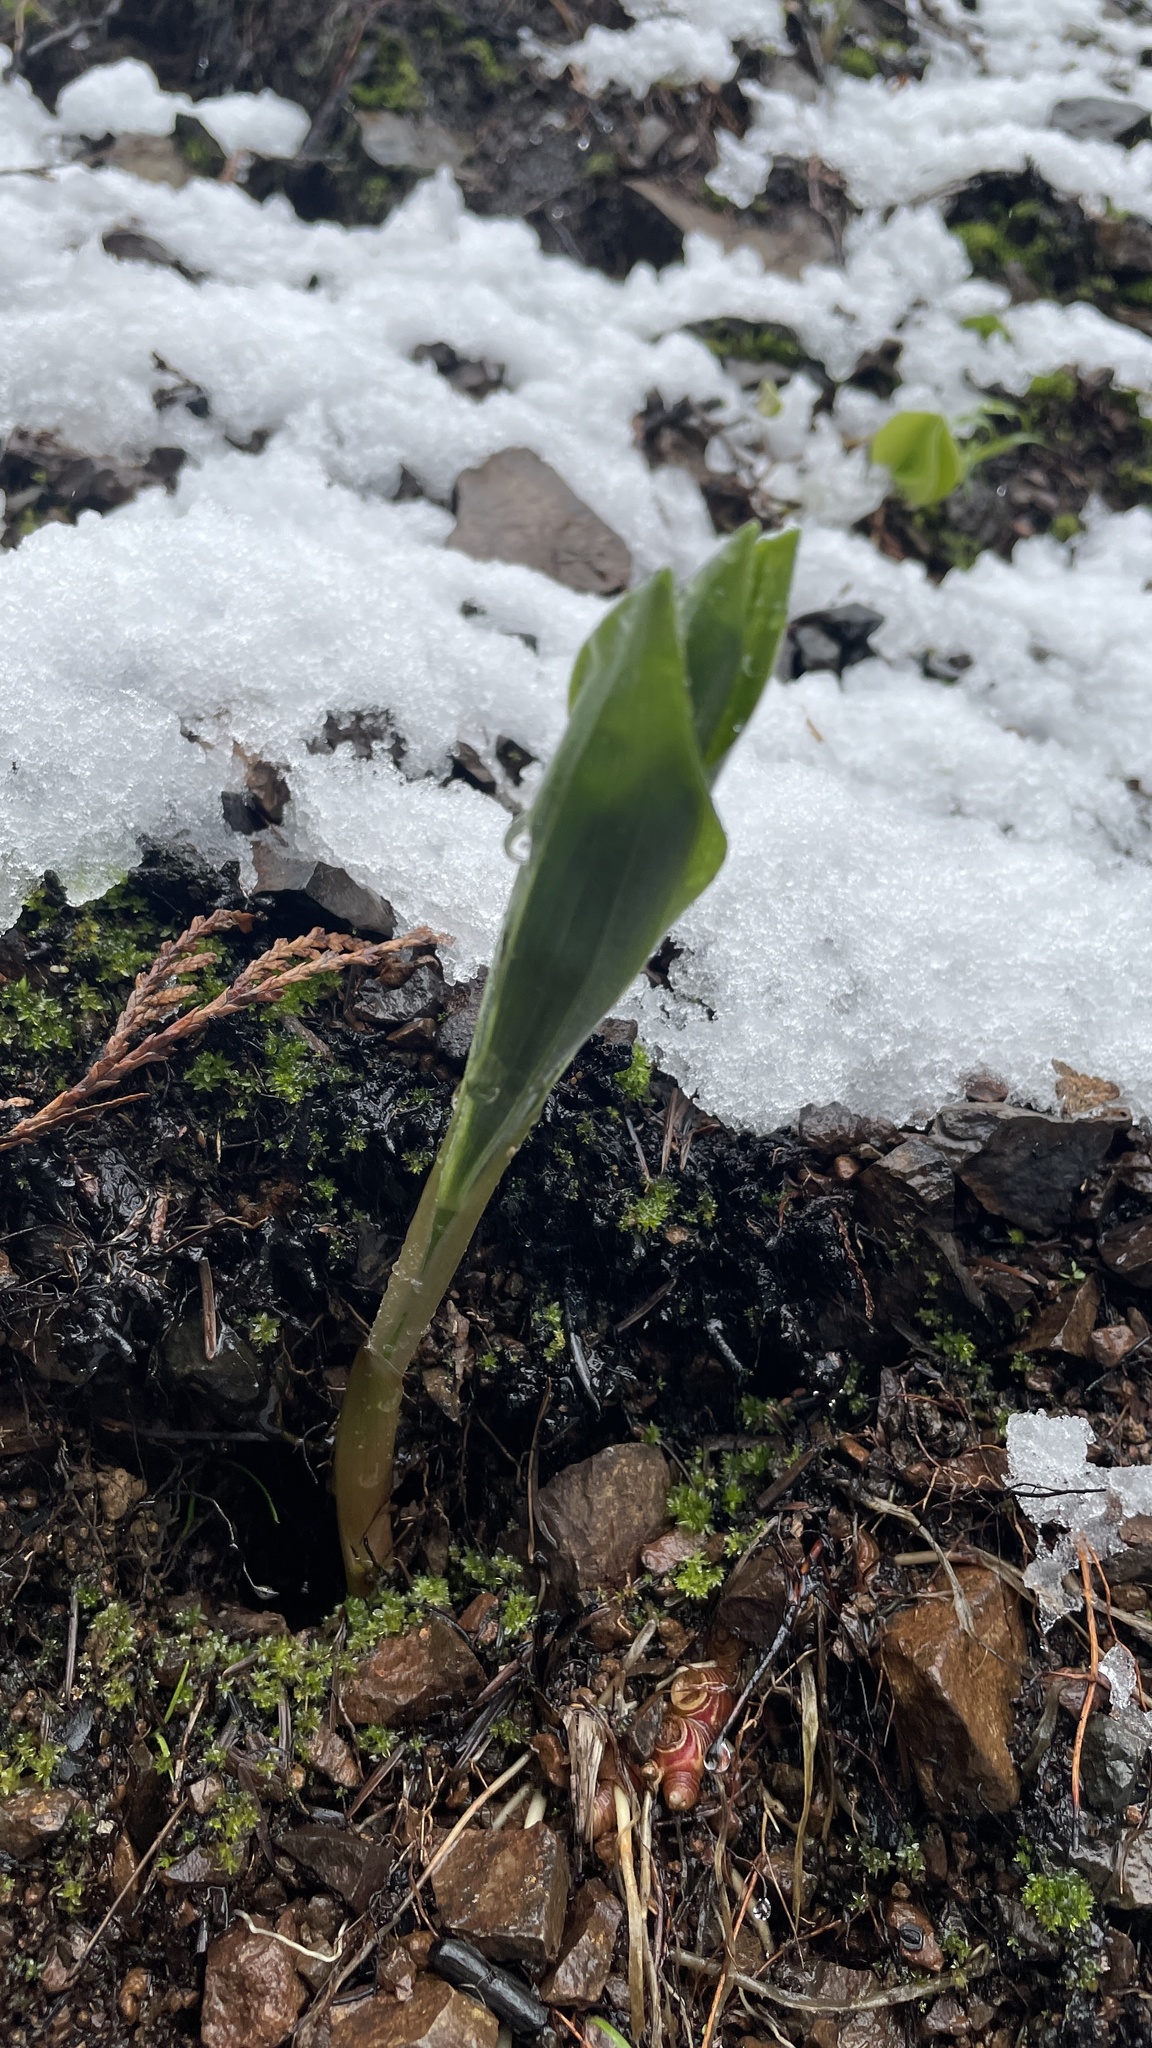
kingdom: Plantae
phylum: Tracheophyta
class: Liliopsida
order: Asparagales
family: Asparagaceae
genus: Maianthemum
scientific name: Maianthemum racemosum
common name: False spikenard
